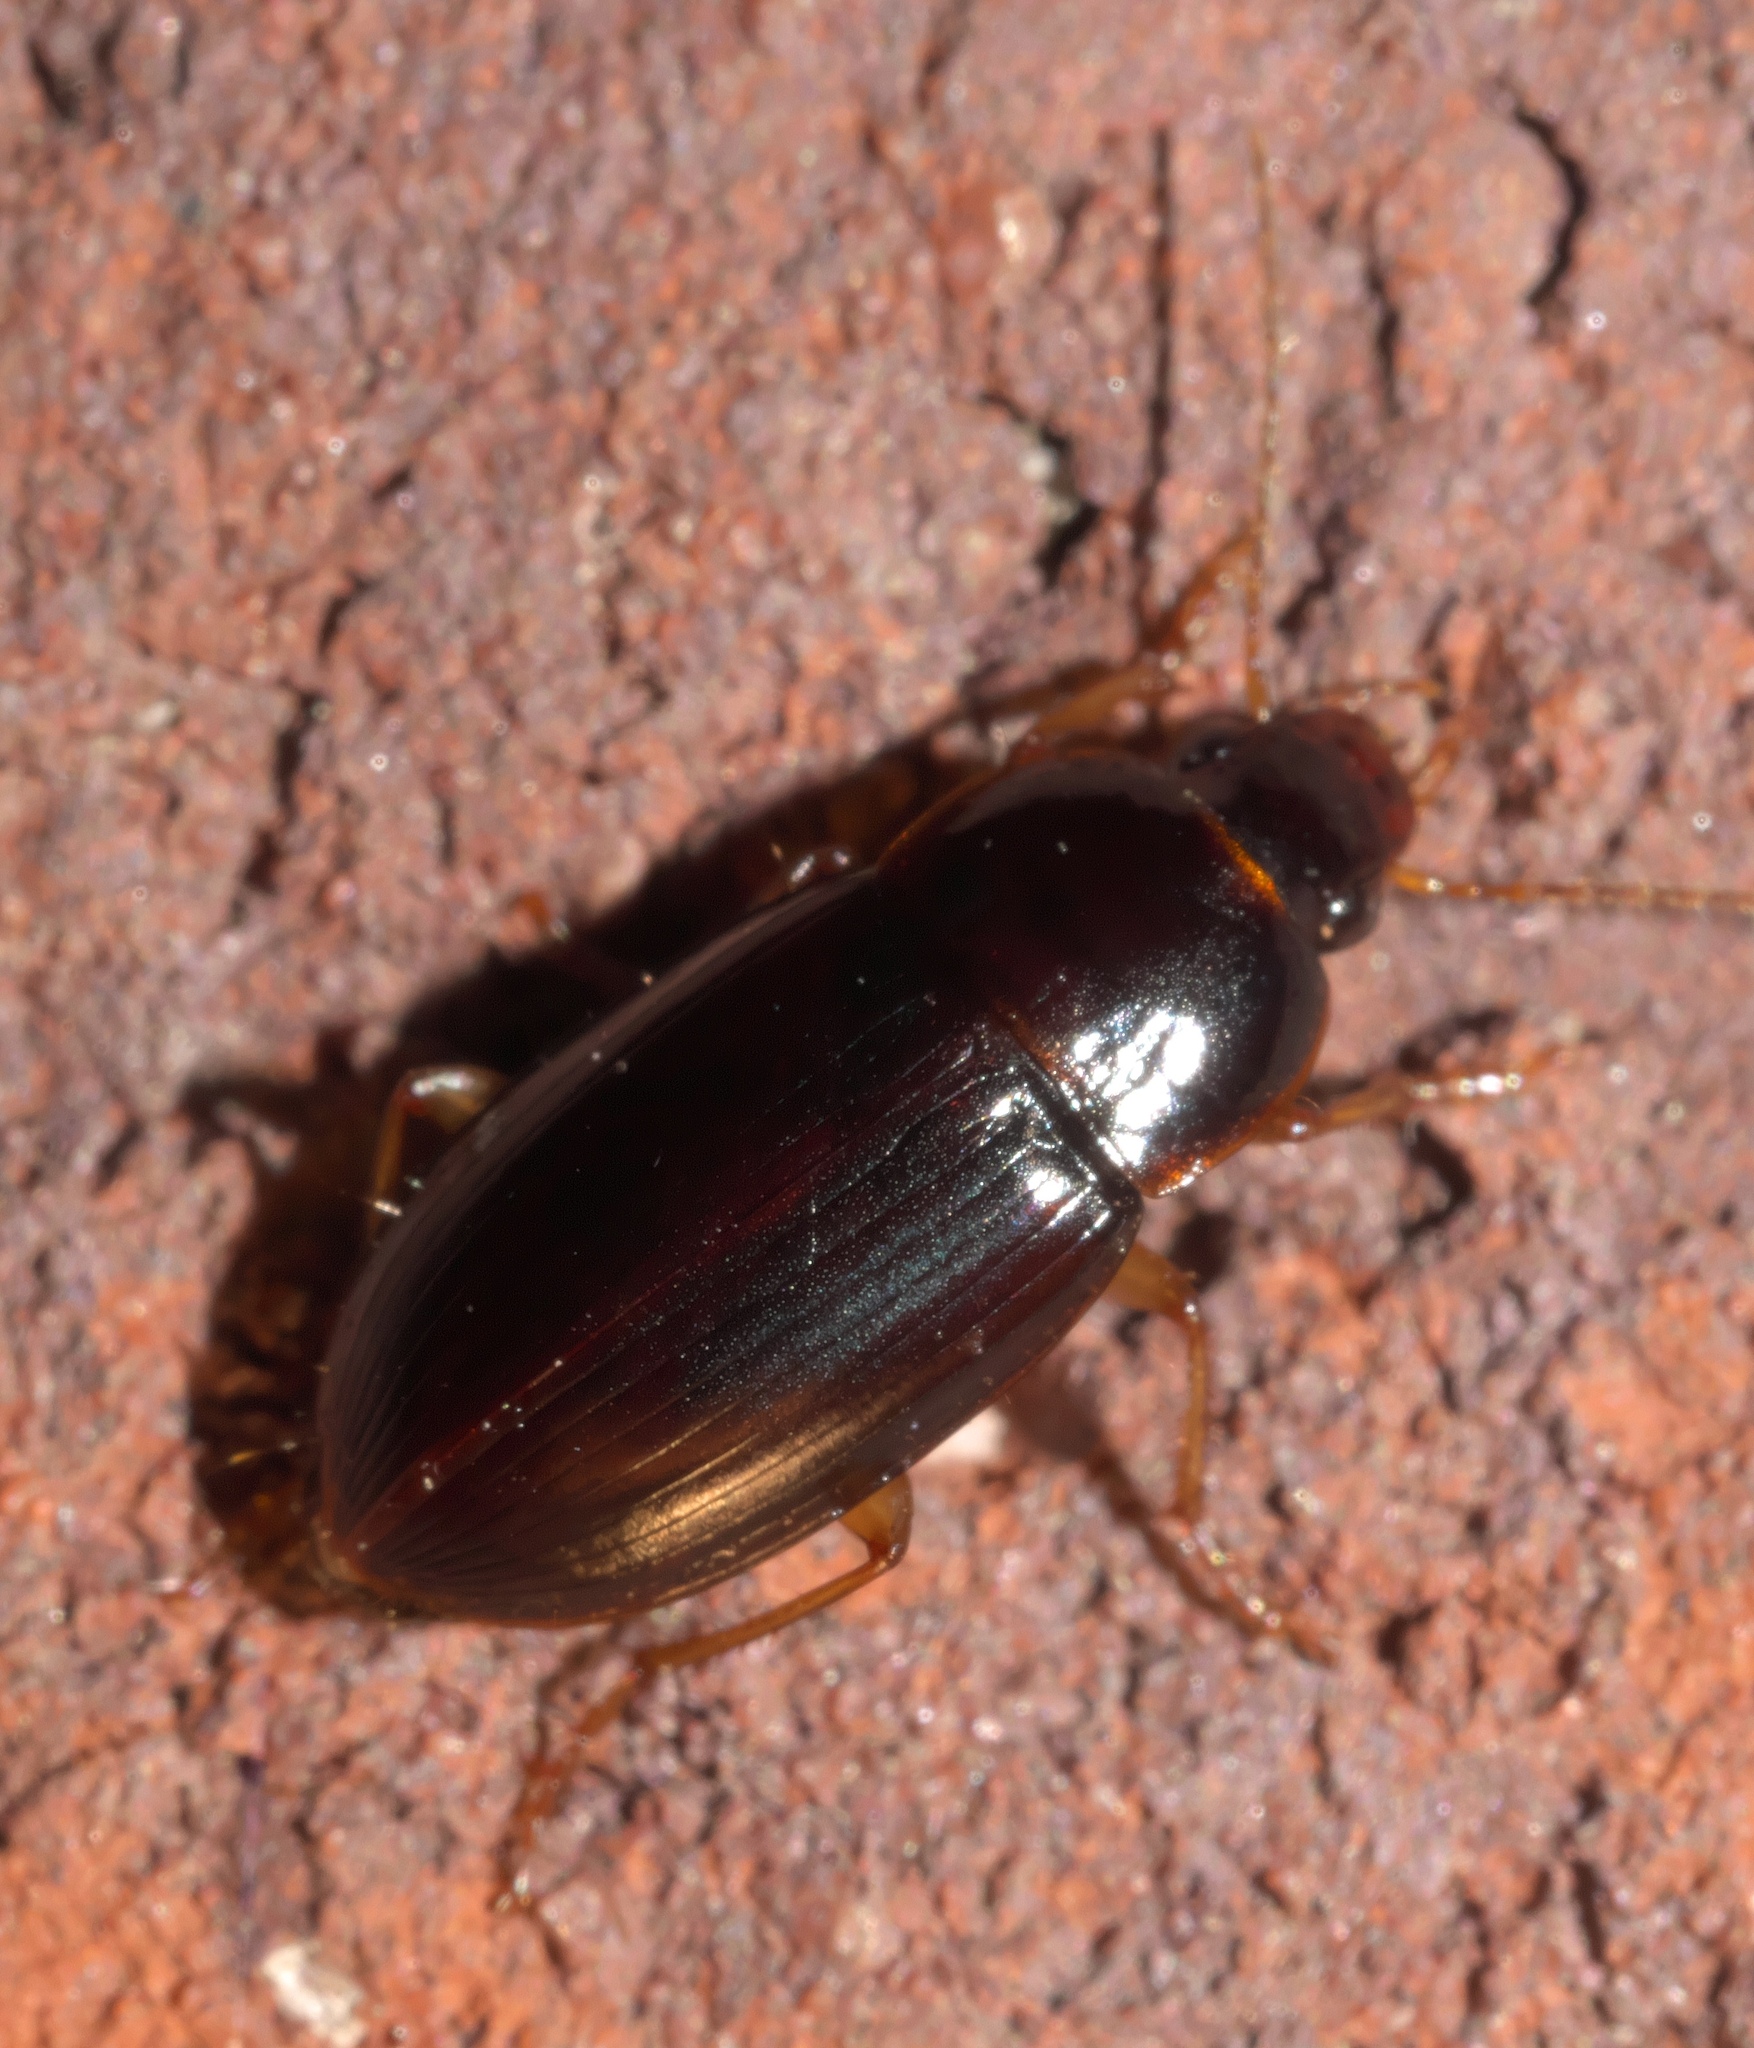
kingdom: Animalia
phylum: Arthropoda
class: Insecta
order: Coleoptera
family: Carabidae
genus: Notiobia
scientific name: Notiobia terminata
